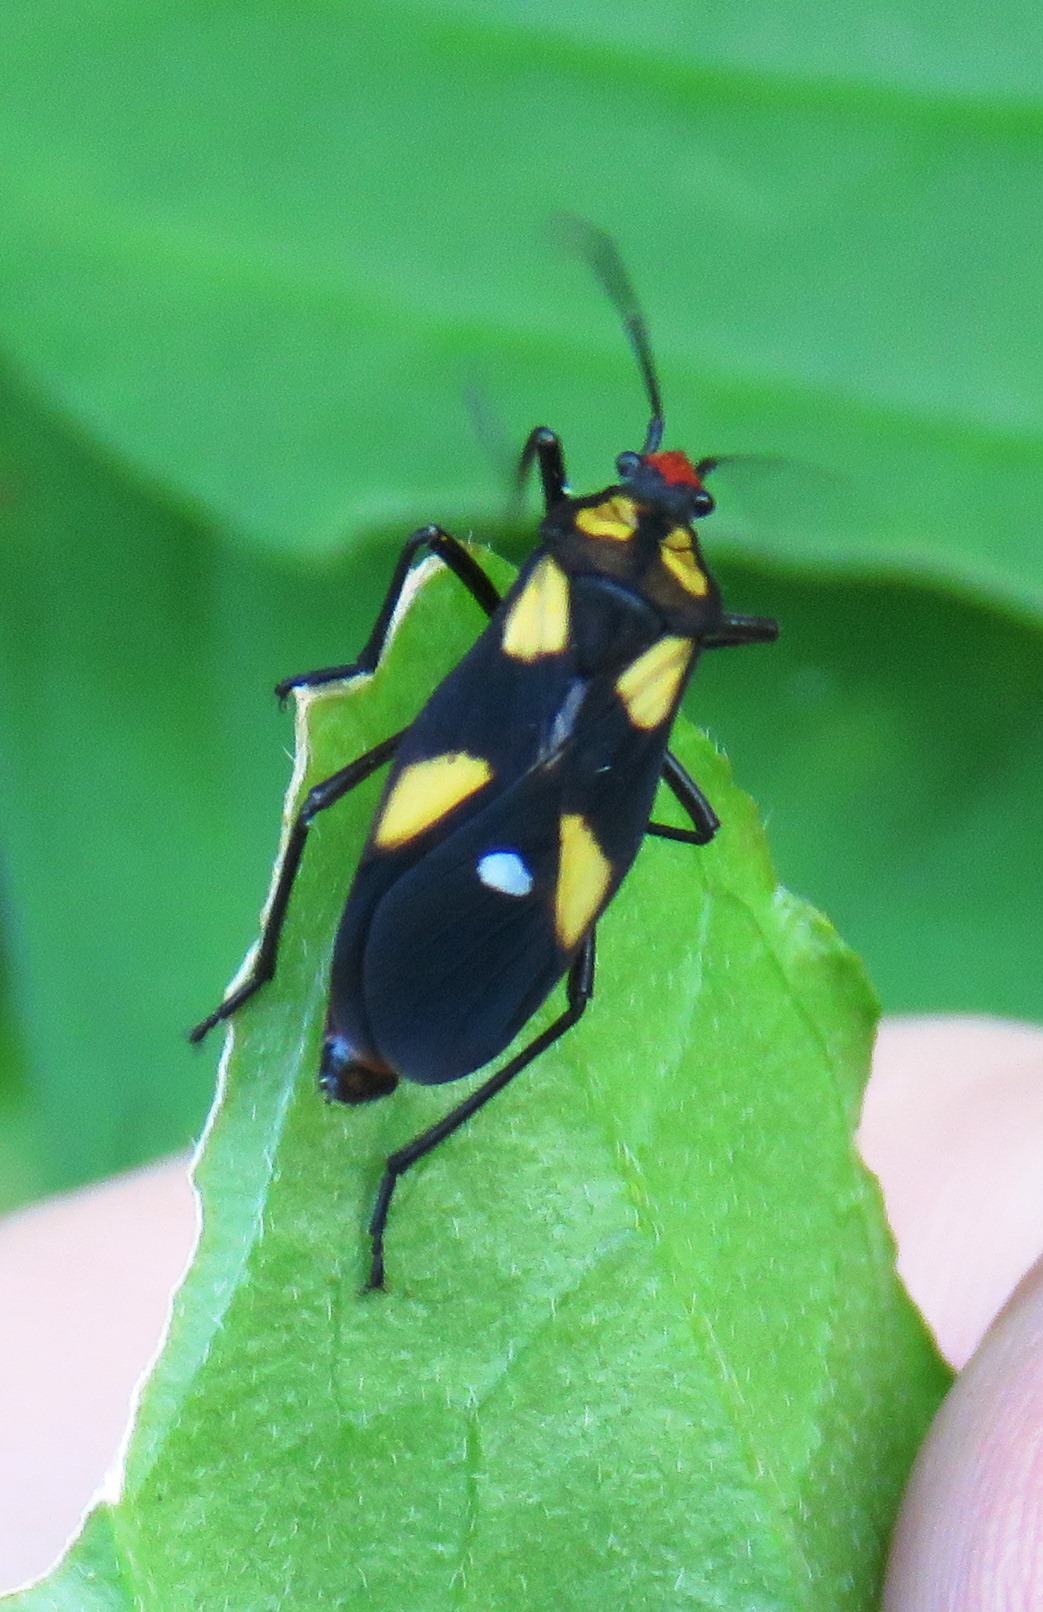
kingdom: Animalia
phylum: Arthropoda
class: Insecta
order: Hemiptera
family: Lygaeidae
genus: Oncopeltus
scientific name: Oncopeltus sexmaculatus
